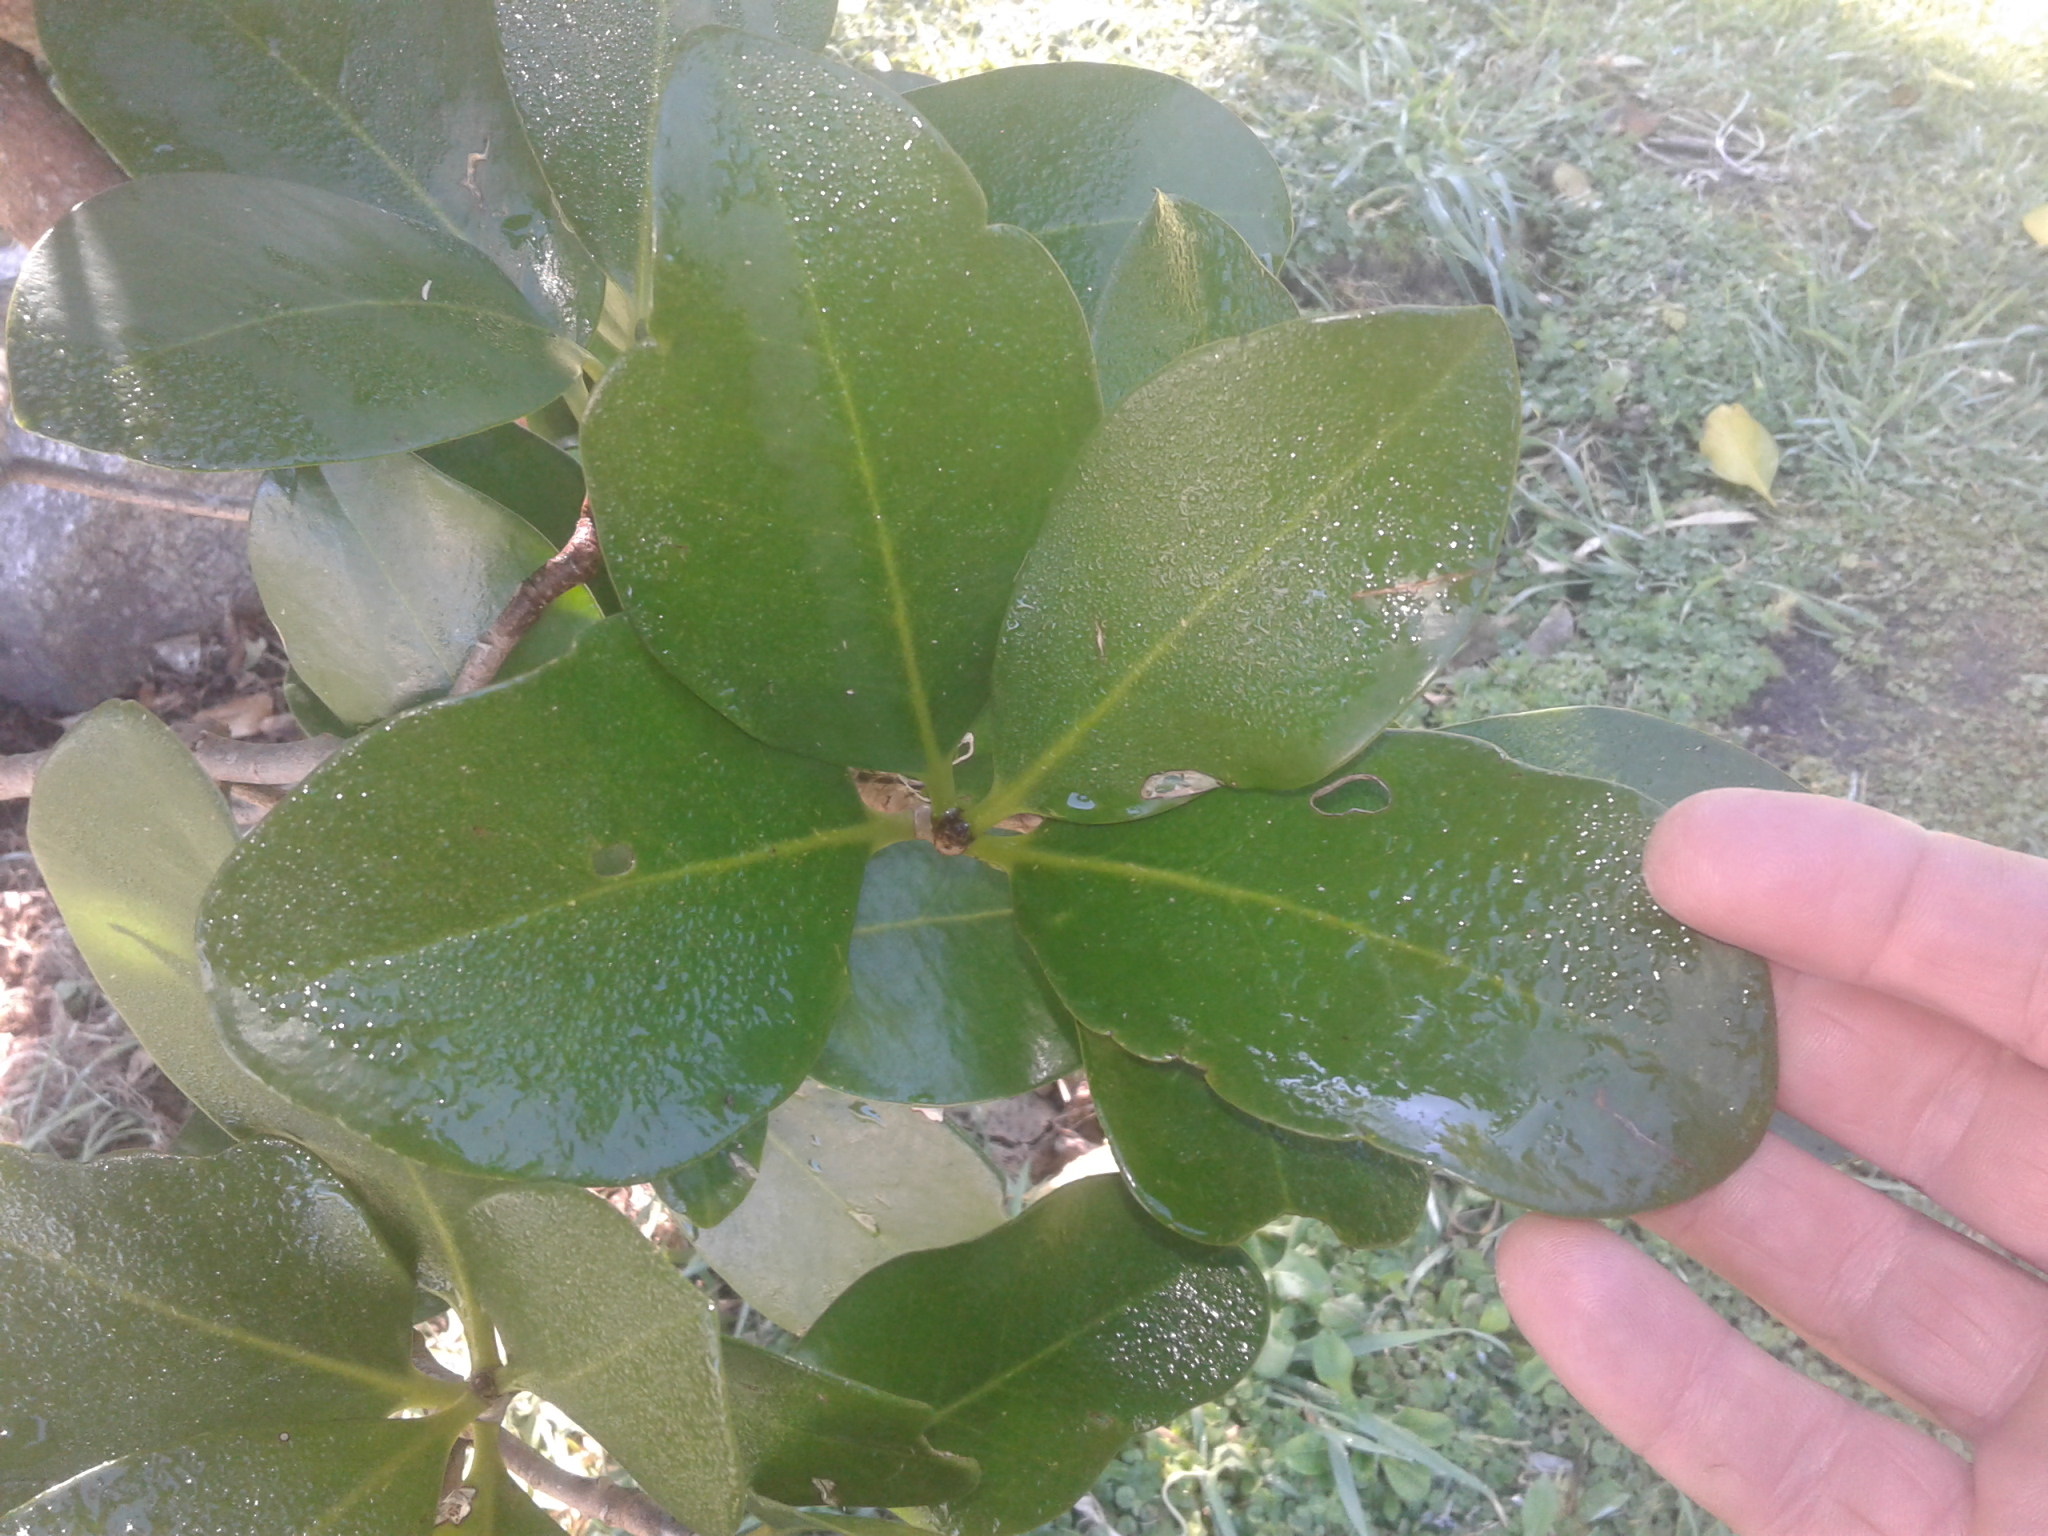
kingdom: Plantae
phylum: Tracheophyta
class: Magnoliopsida
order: Cucurbitales
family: Corynocarpaceae
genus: Corynocarpus
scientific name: Corynocarpus laevigatus
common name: New zealand laurel
